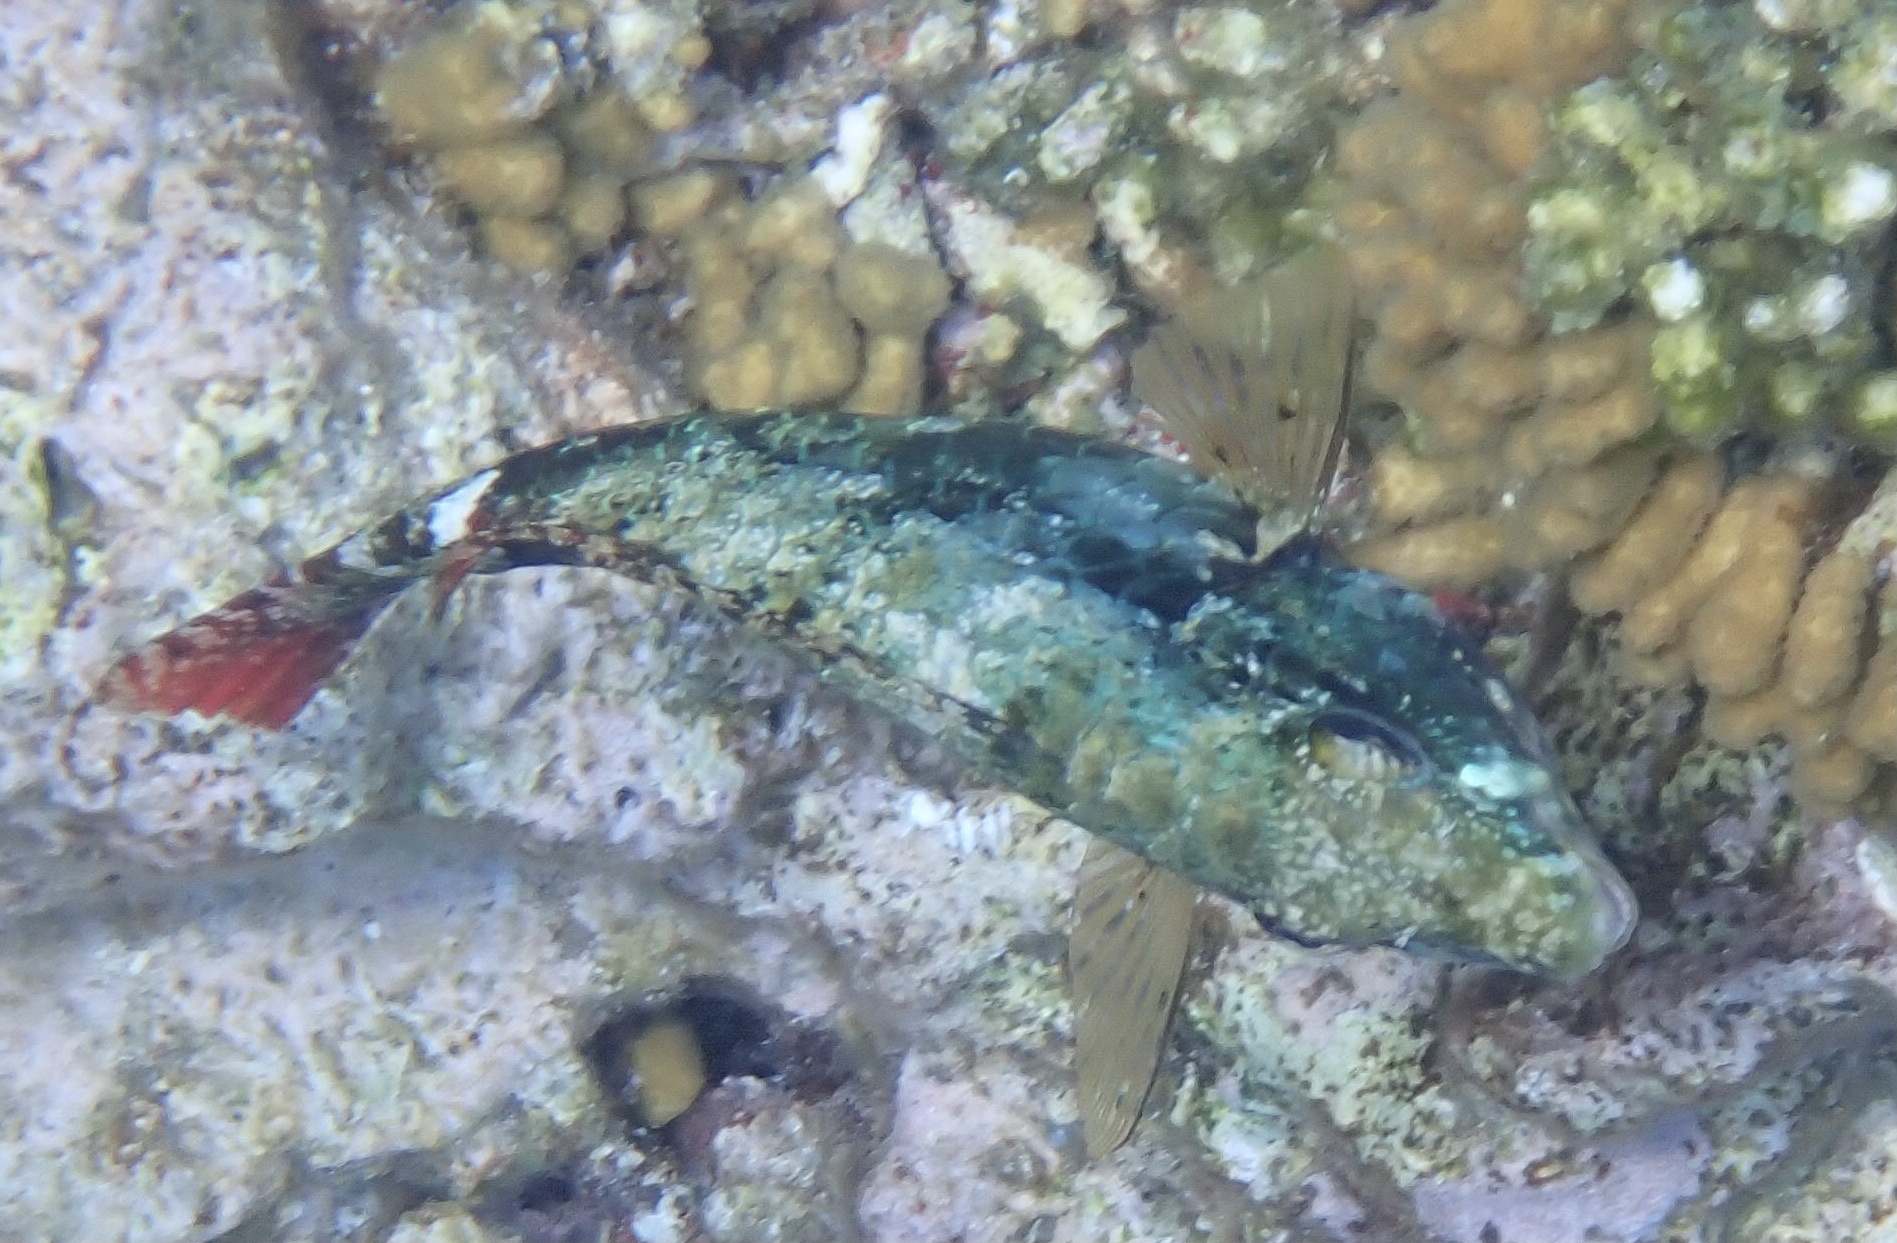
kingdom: Animalia
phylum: Chordata
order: Perciformes
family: Scaridae
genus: Sparisoma
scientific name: Sparisoma aurofrenatum
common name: Redband parrotfish
